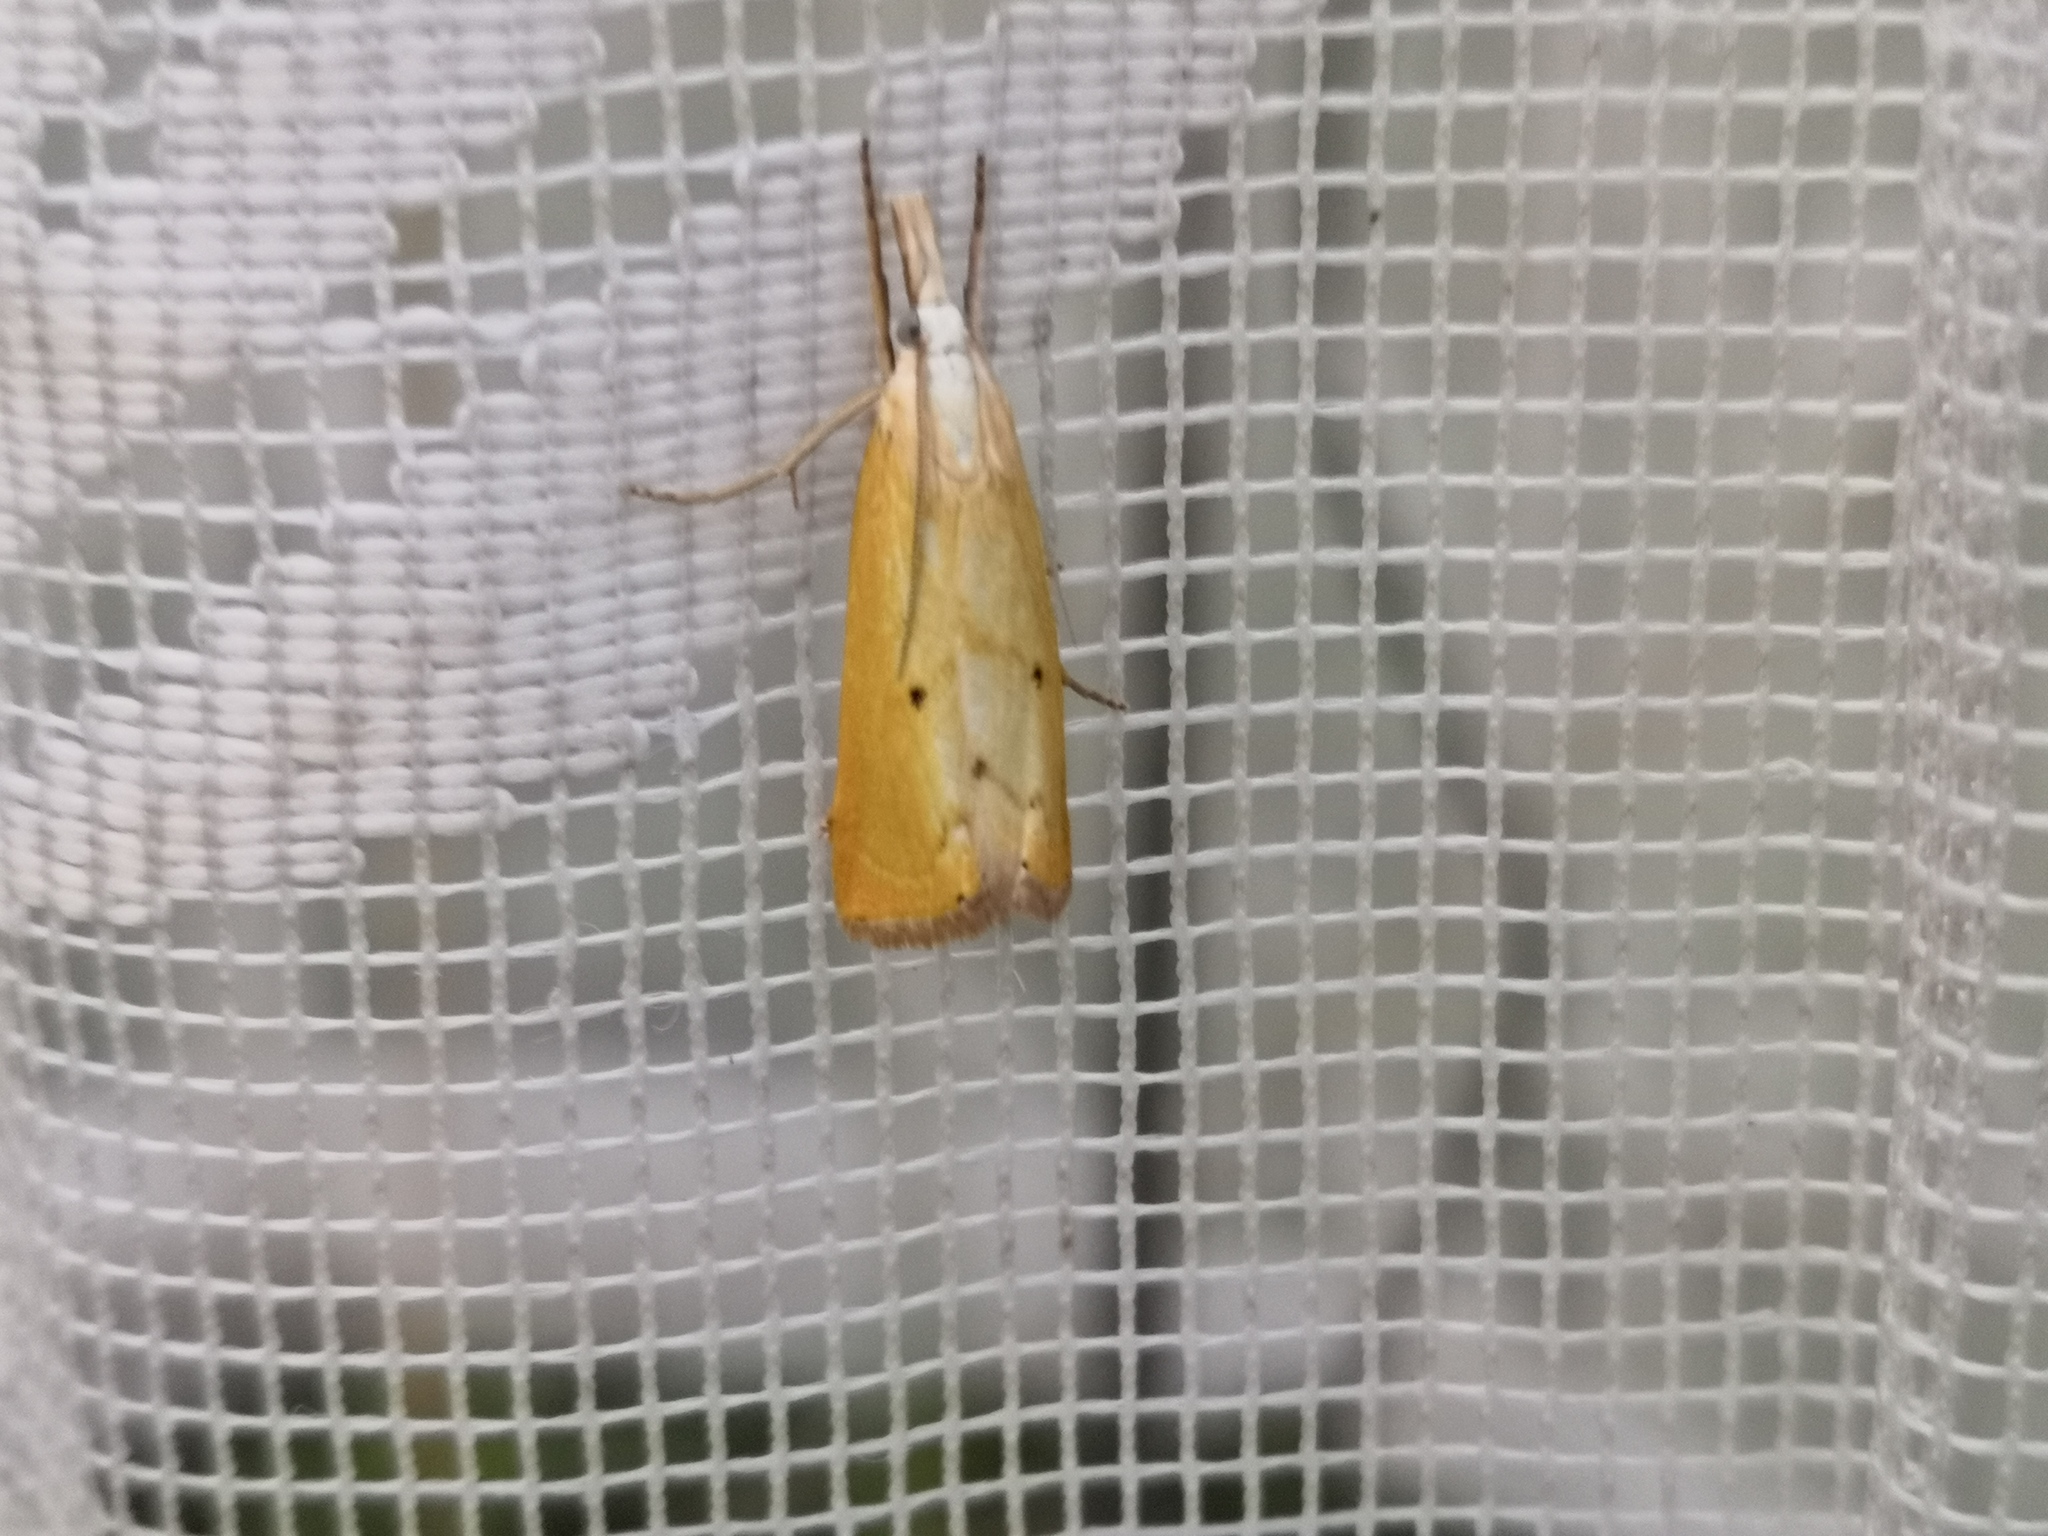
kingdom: Animalia
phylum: Arthropoda
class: Insecta
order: Lepidoptera
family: Crambidae
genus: Xanthocrambus
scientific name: Xanthocrambus saxonellus
